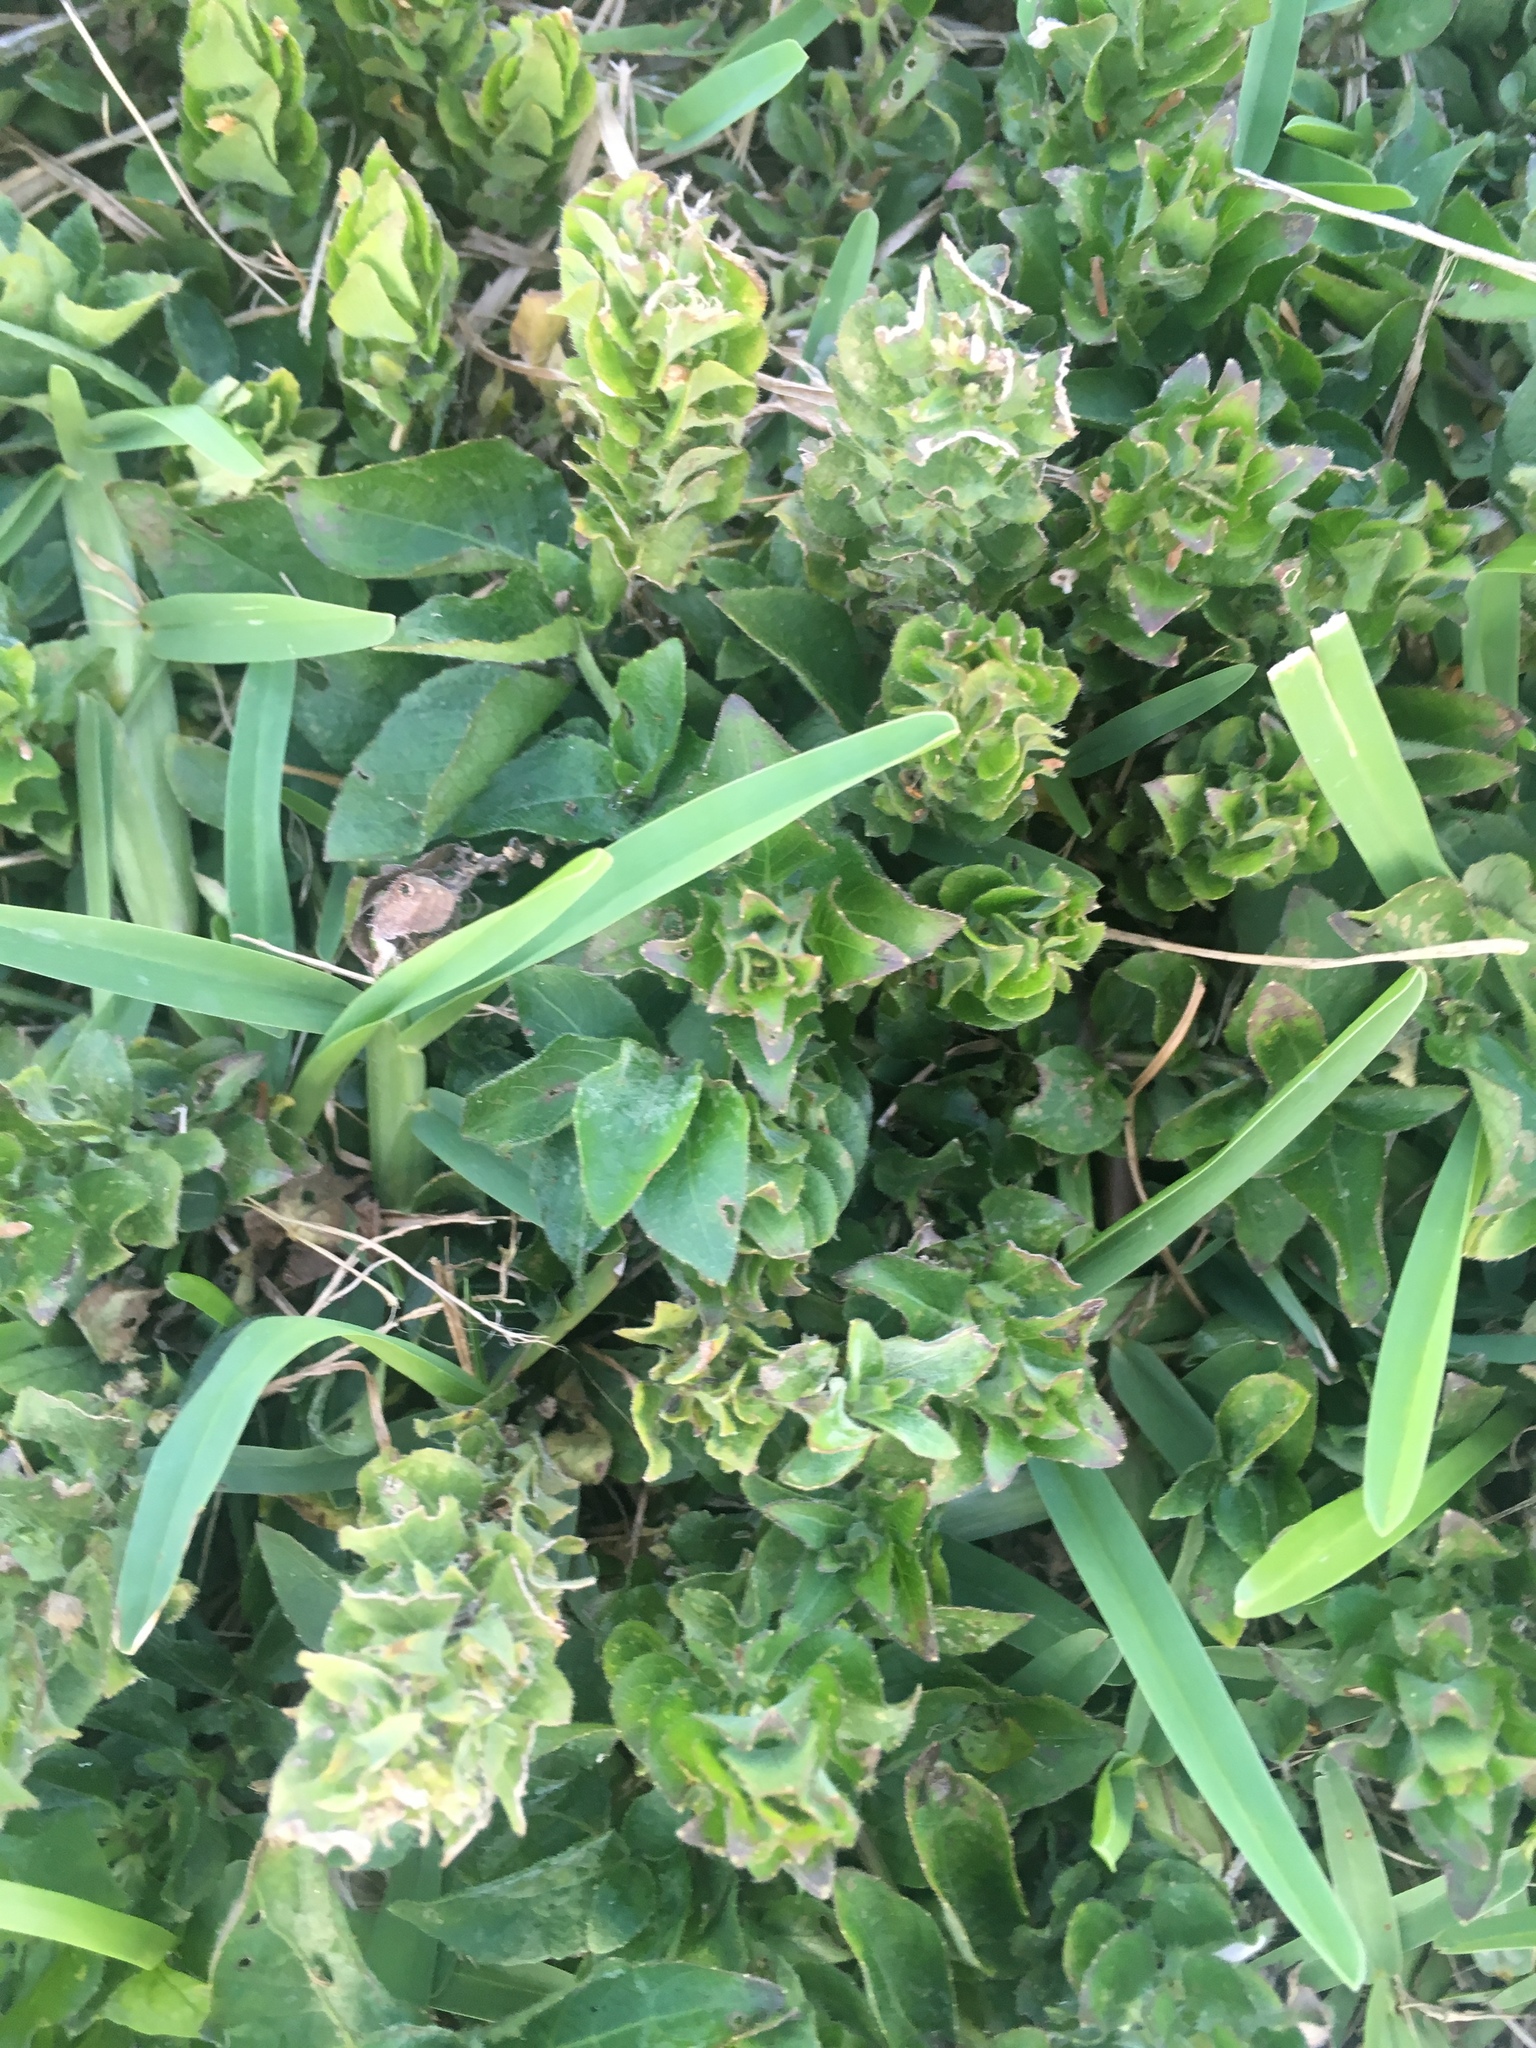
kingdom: Plantae
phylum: Tracheophyta
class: Magnoliopsida
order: Lamiales
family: Acanthaceae
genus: Ruellia
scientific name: Ruellia blechum
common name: Browne's blechum
